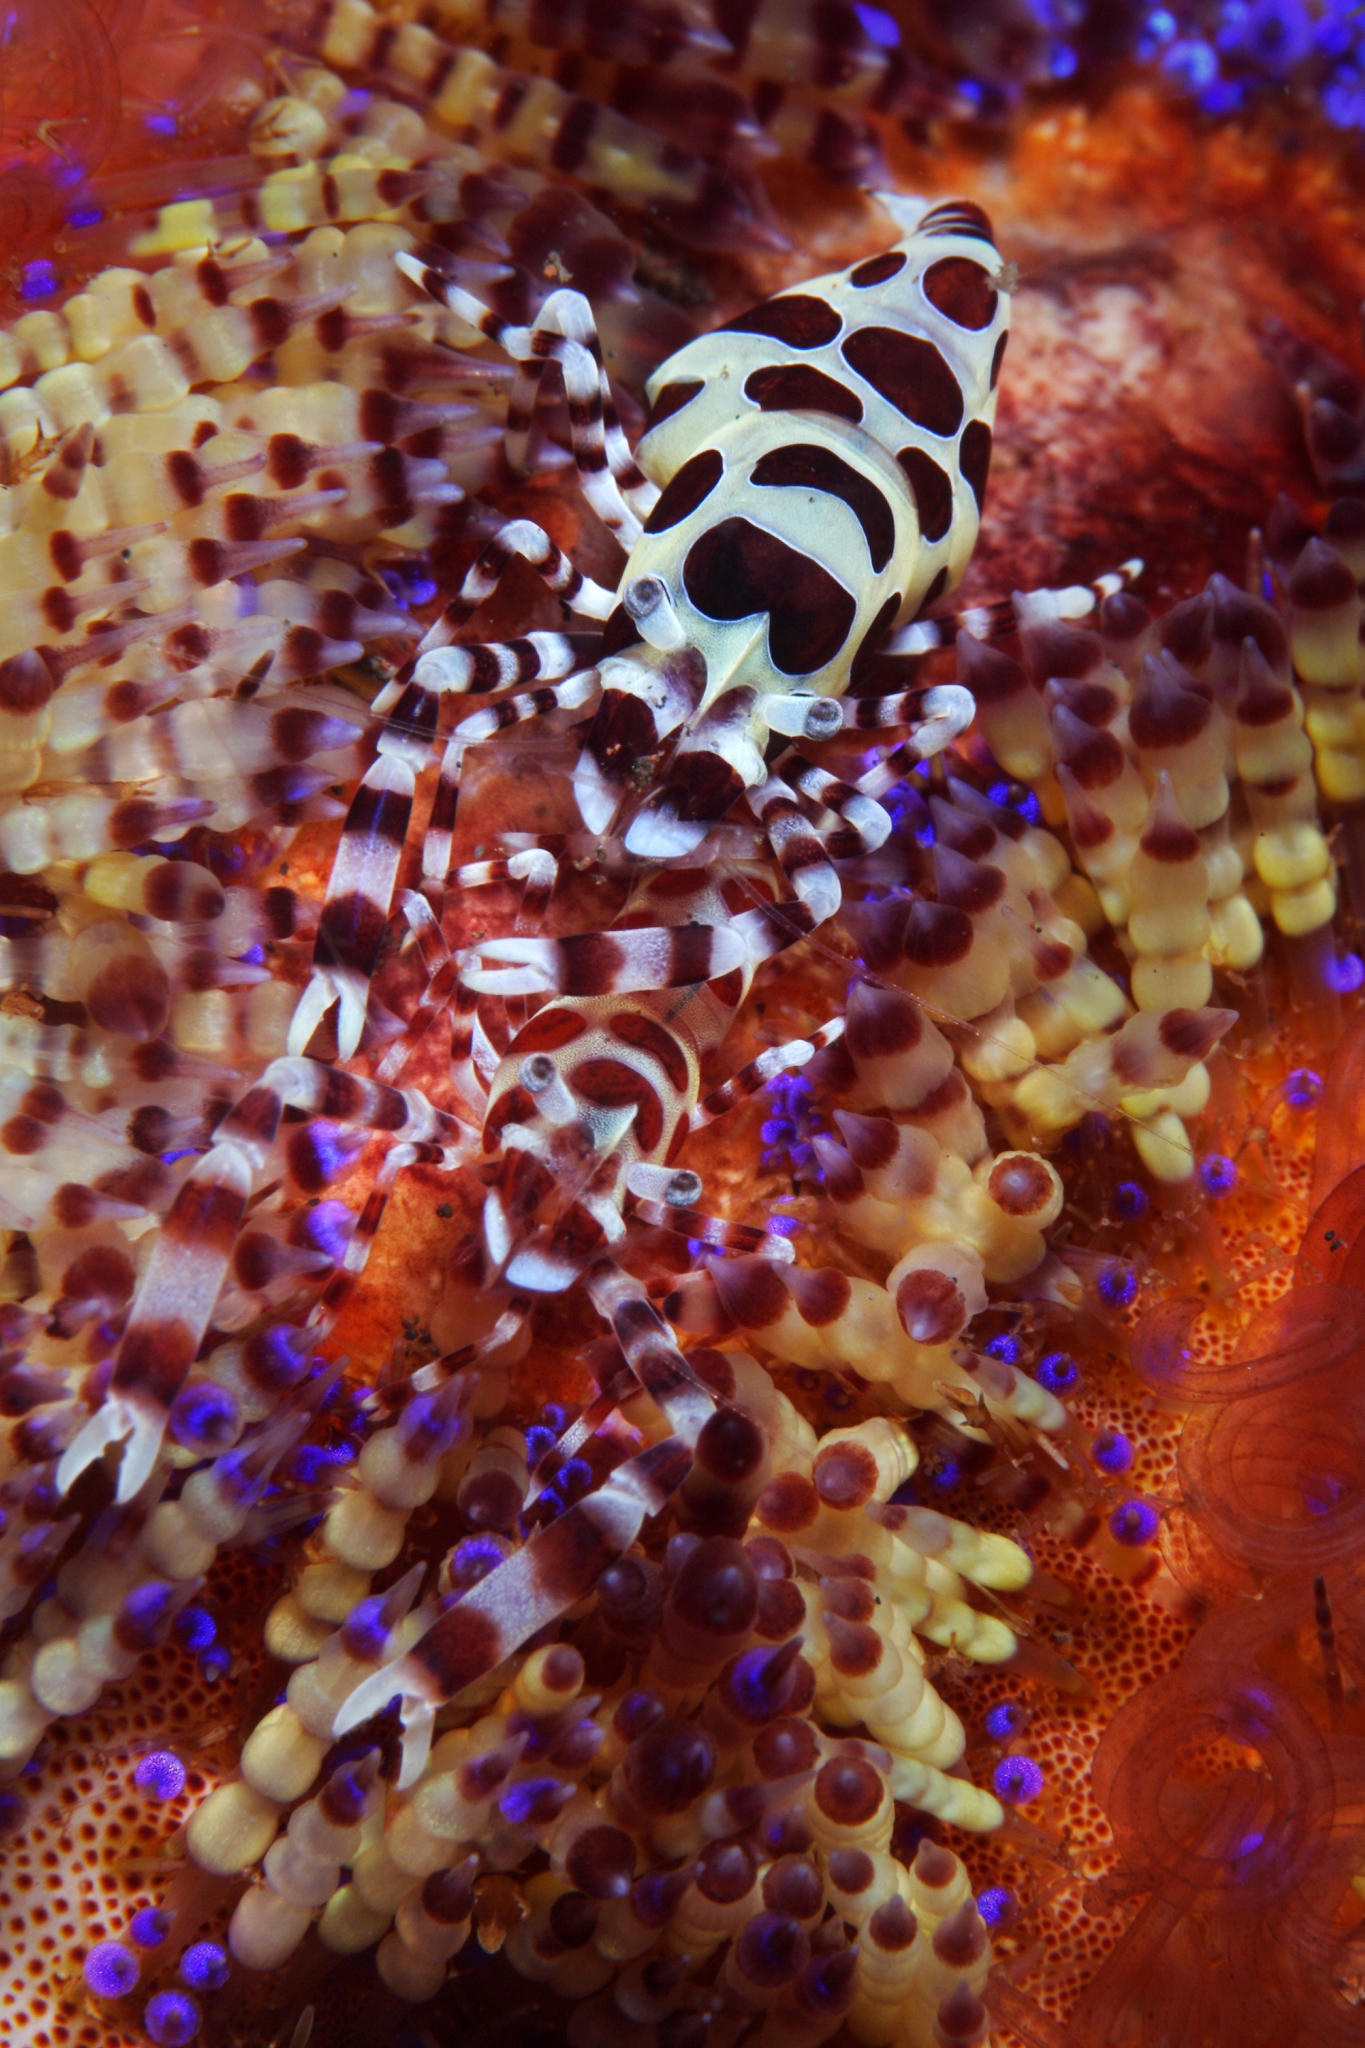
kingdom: Animalia
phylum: Arthropoda
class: Malacostraca
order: Decapoda
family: Palaemonidae
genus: Periclimenes
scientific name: Periclimenes colemani
